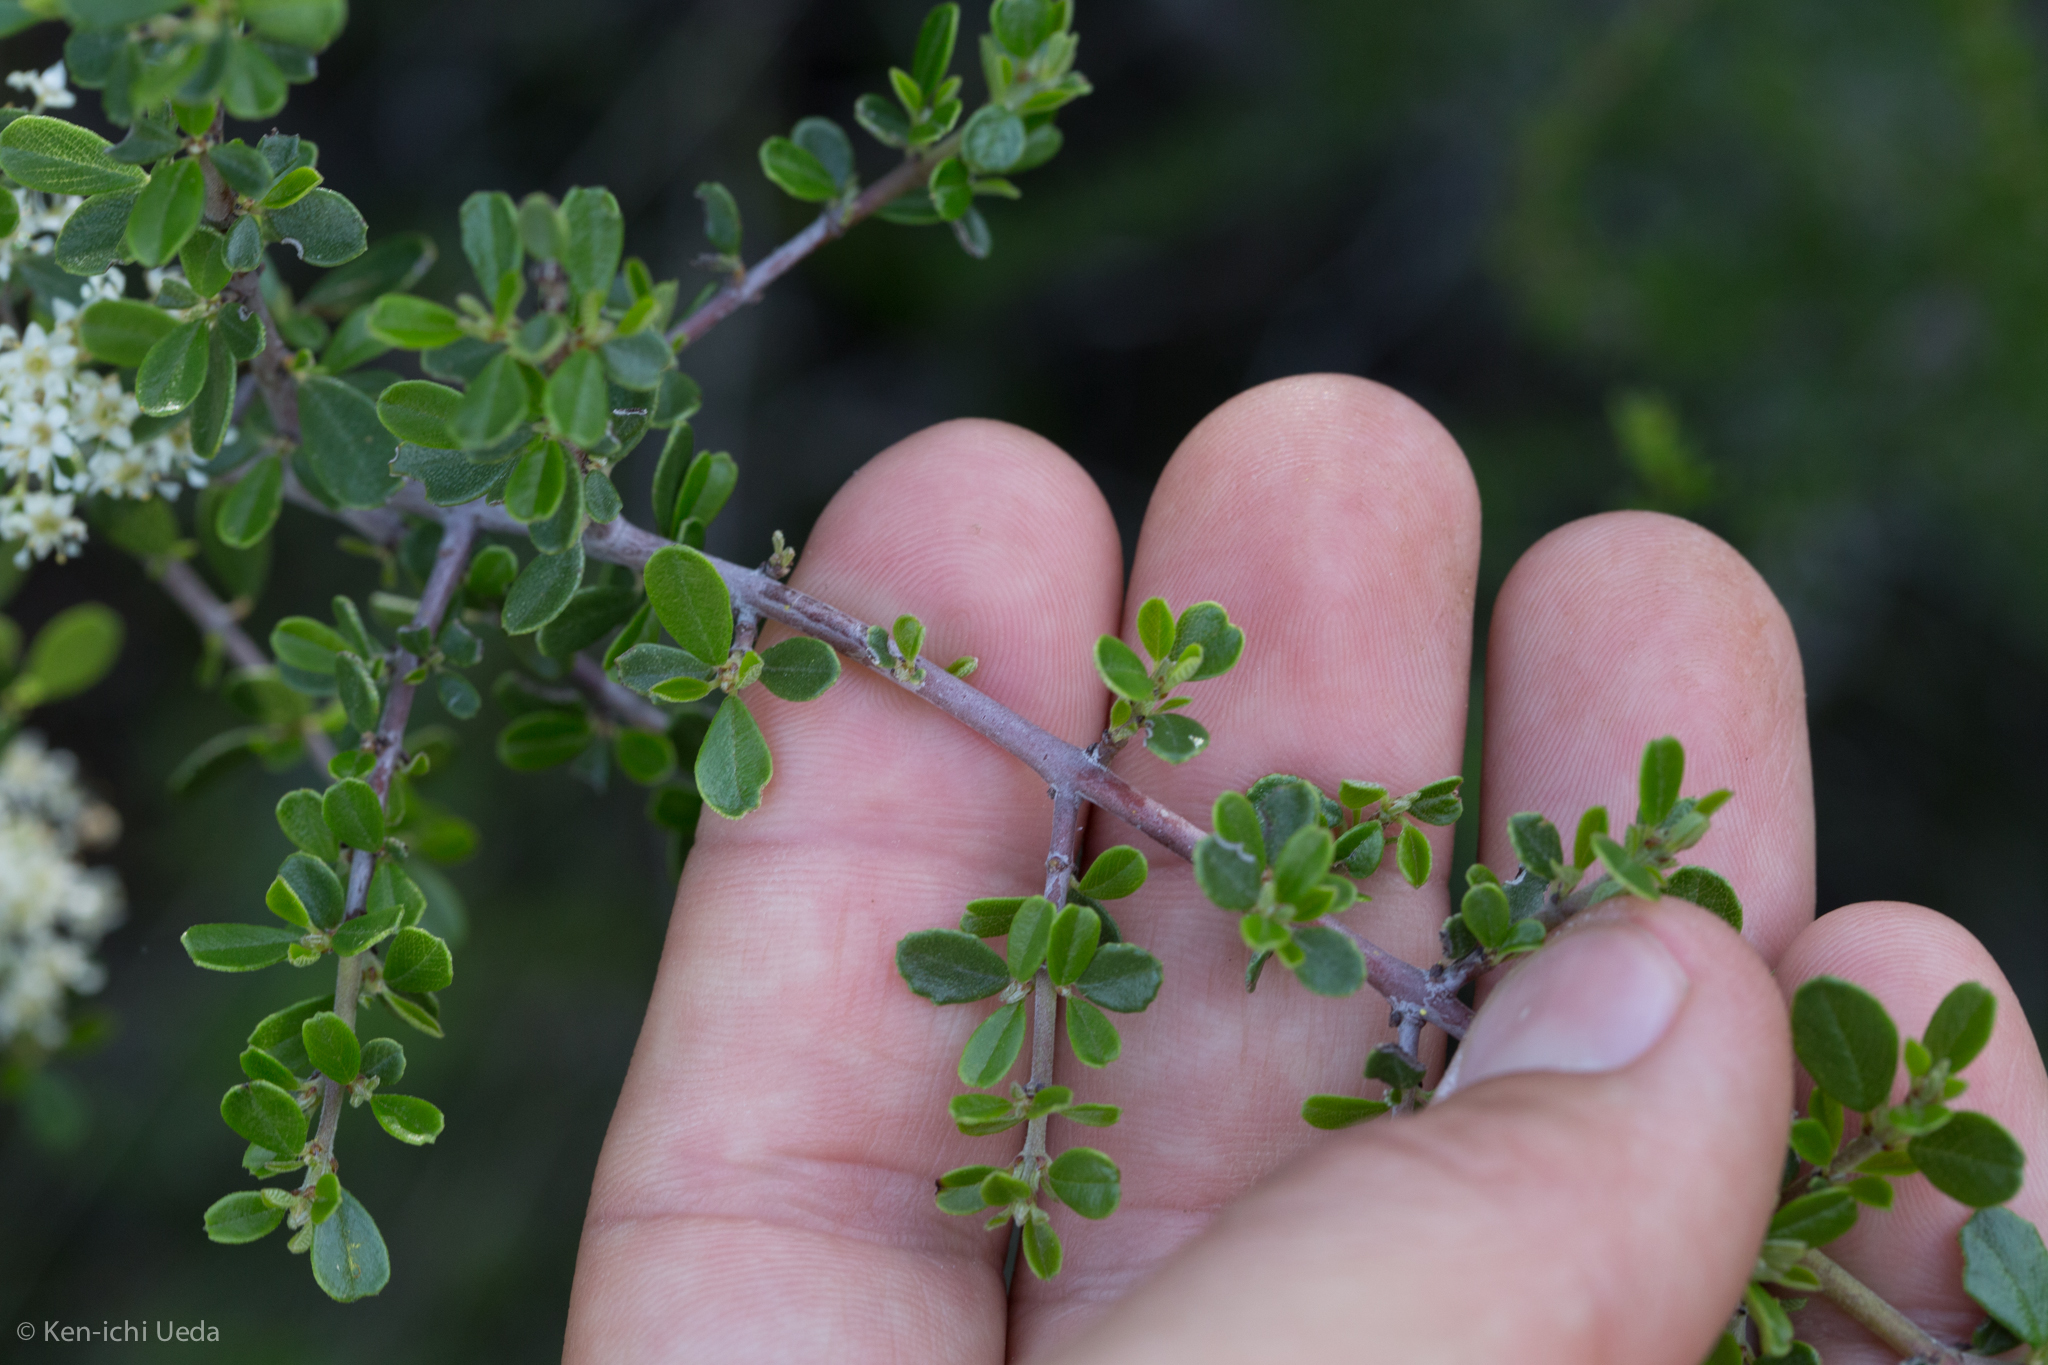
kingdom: Plantae
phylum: Tracheophyta
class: Magnoliopsida
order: Rosales
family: Rhamnaceae
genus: Ceanothus
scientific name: Ceanothus cuneatus
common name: Cuneate ceanothus
